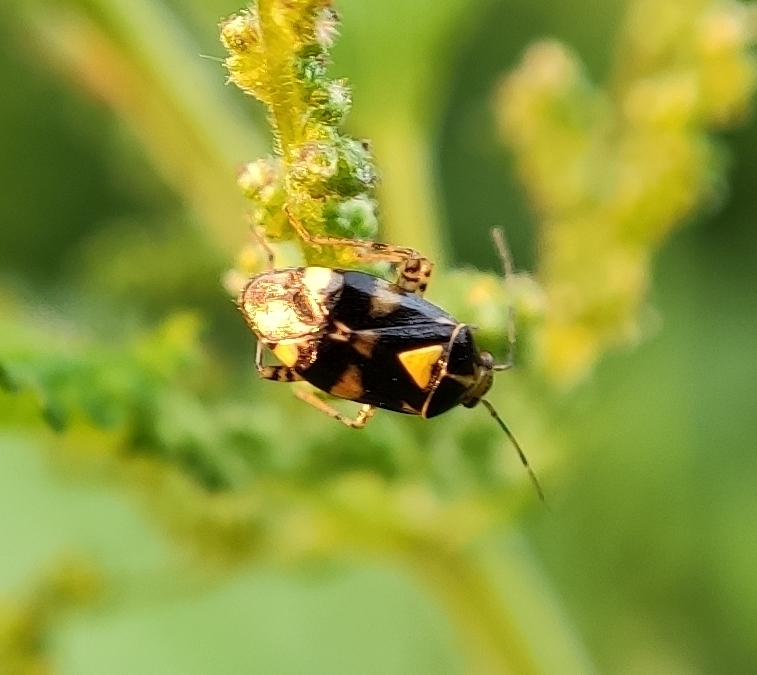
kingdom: Animalia
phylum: Arthropoda
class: Insecta
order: Hemiptera
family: Miridae
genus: Liocoris
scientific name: Liocoris tripustulatus
